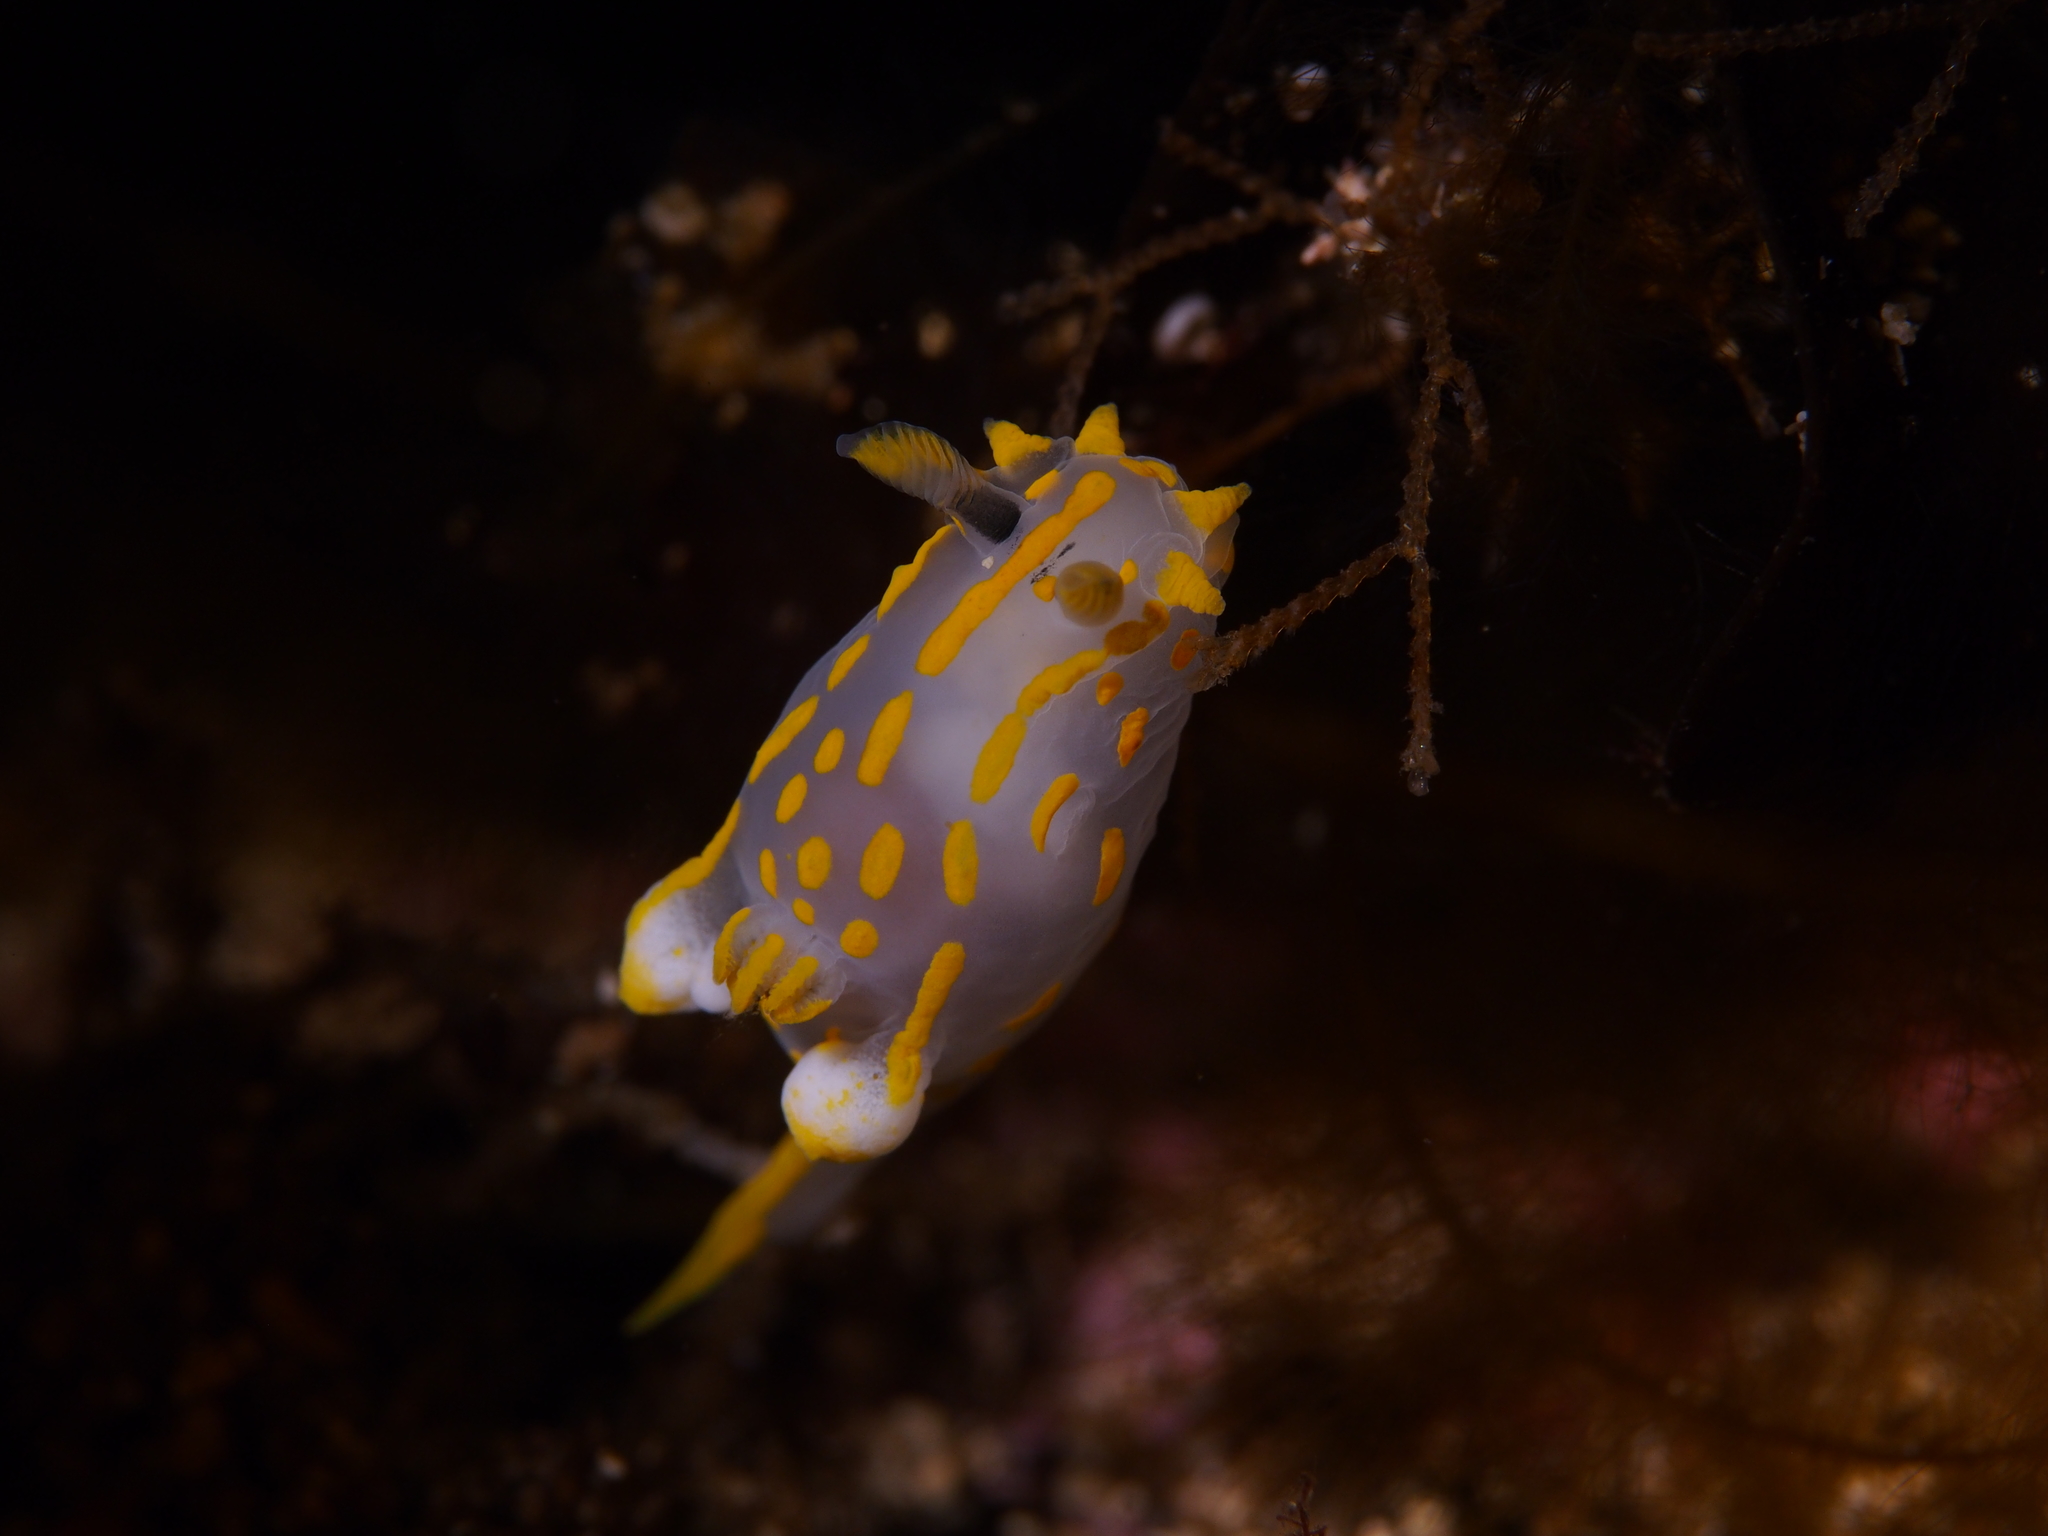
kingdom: Animalia
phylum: Mollusca
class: Gastropoda
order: Nudibranchia
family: Polyceridae
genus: Polycera
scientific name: Polycera quadrilineata
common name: Four-striped polycera
